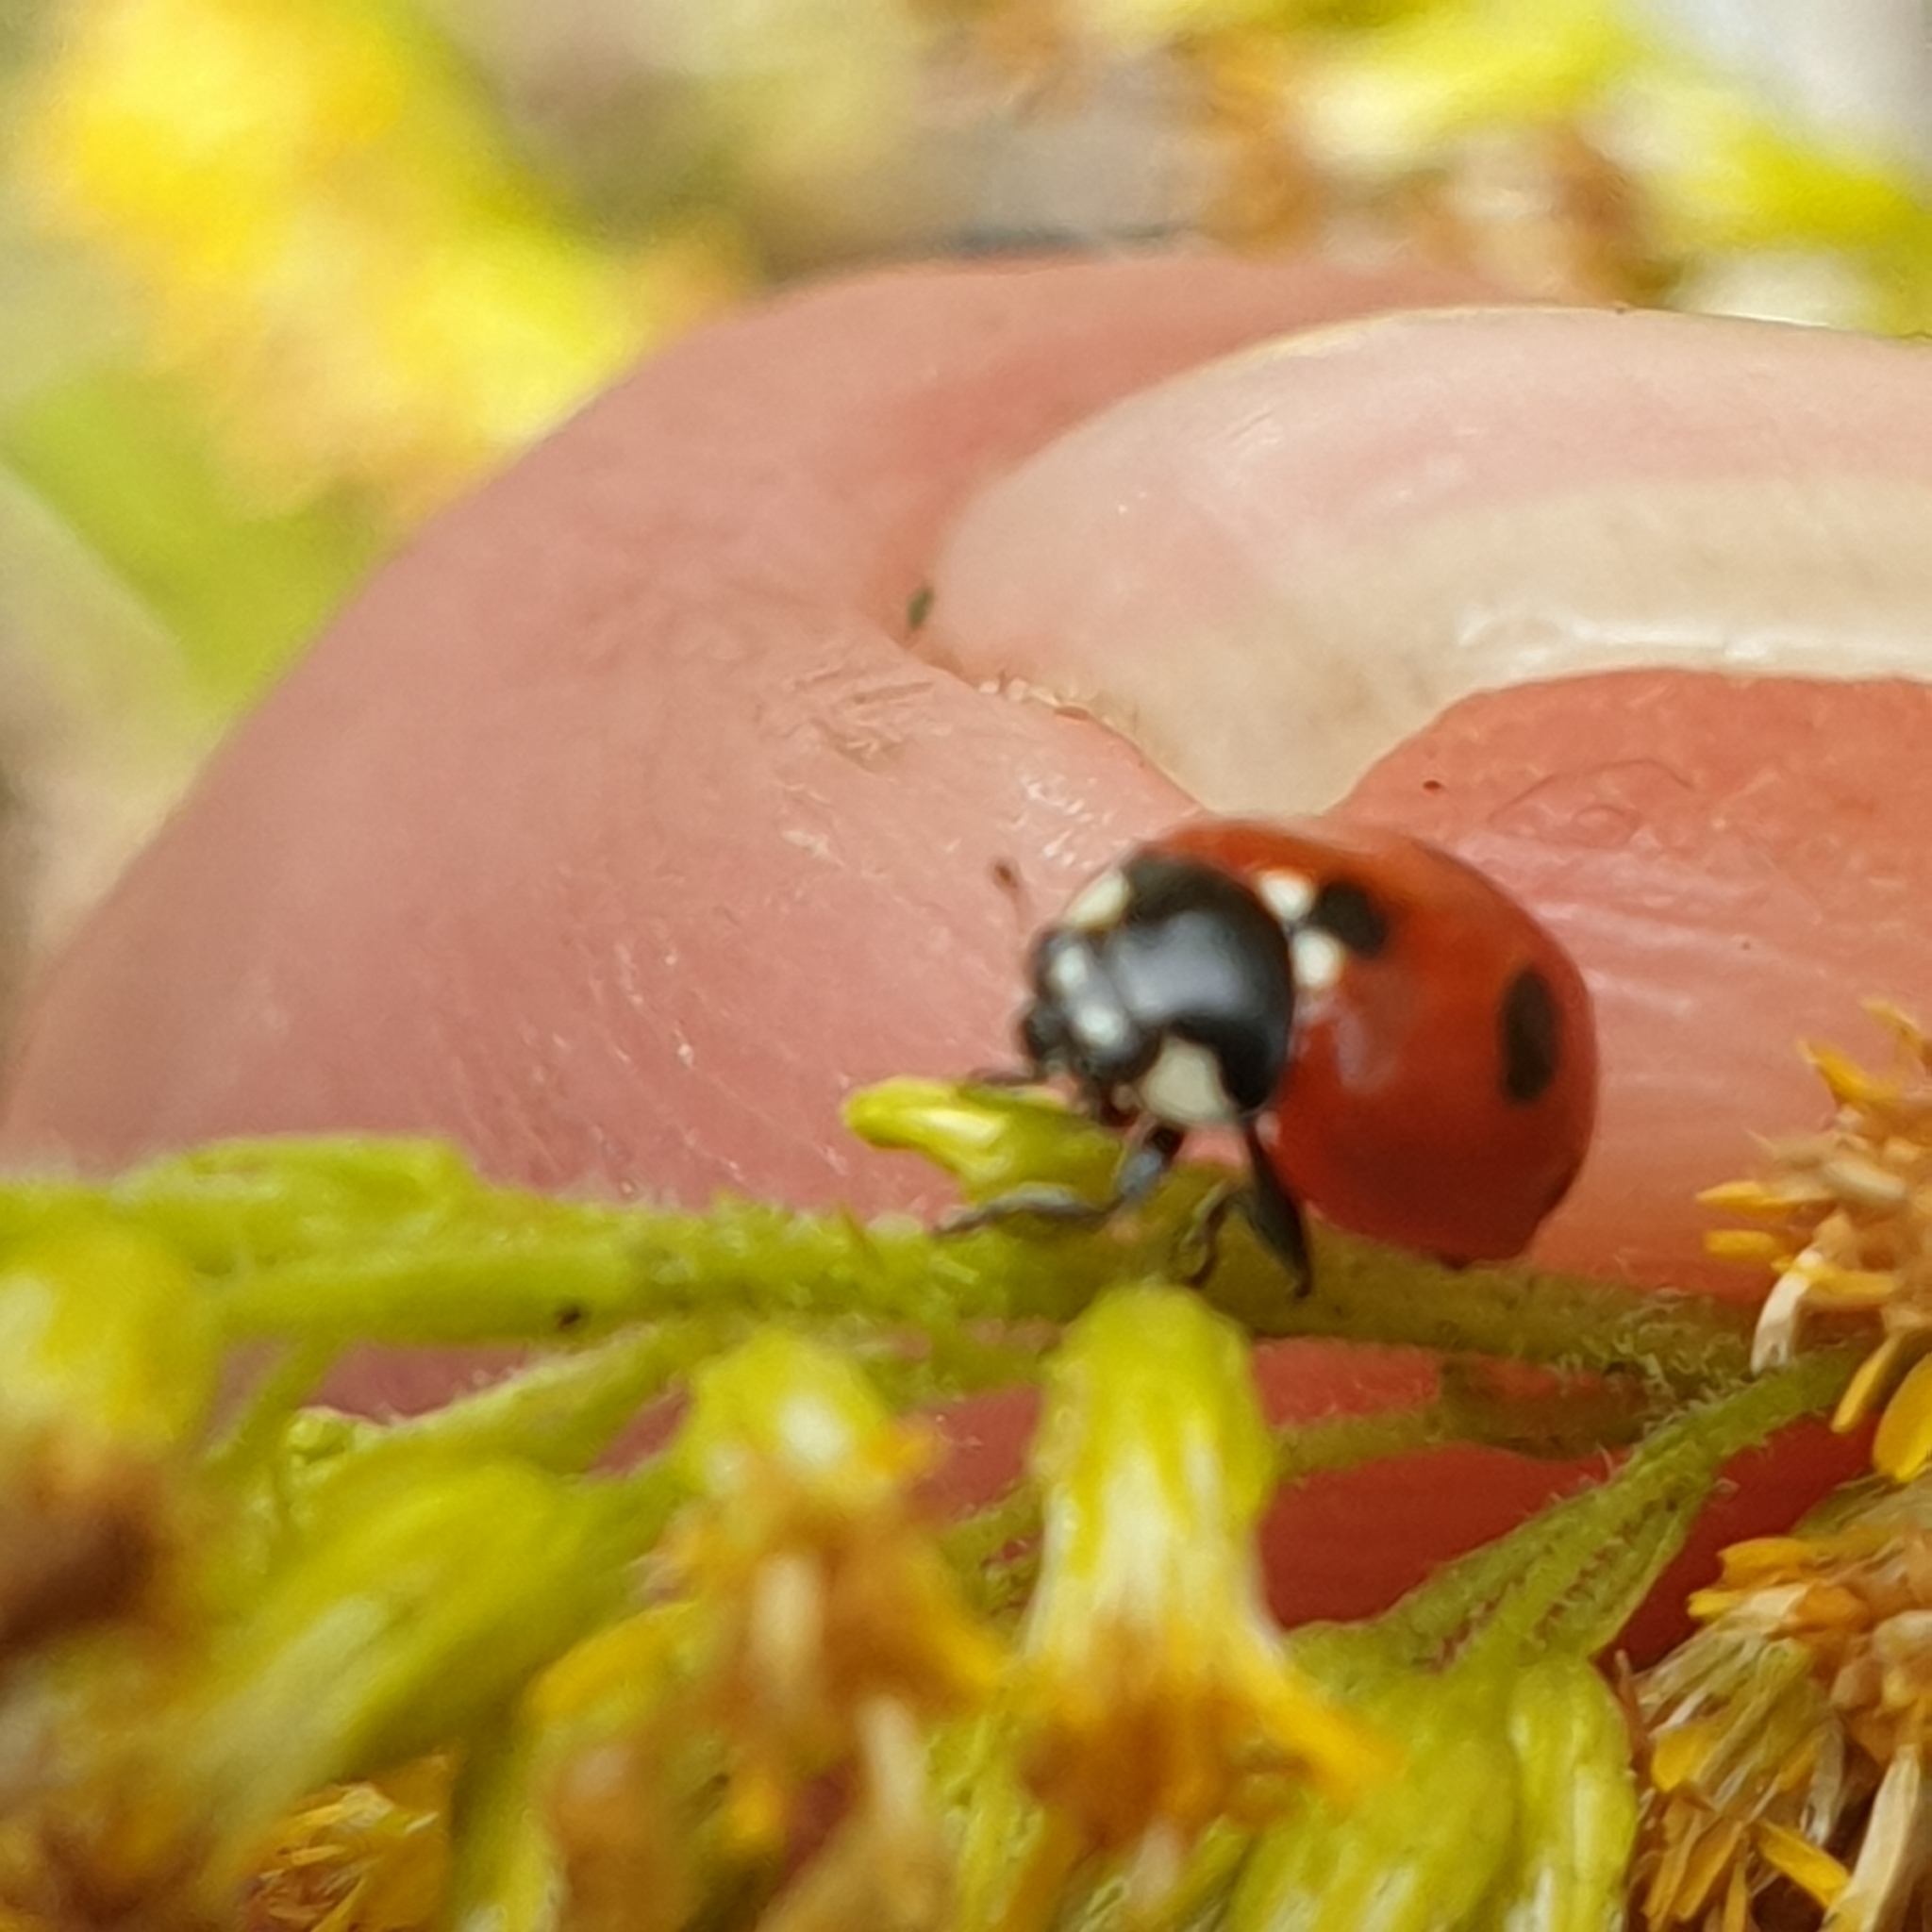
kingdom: Animalia
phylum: Arthropoda
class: Insecta
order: Coleoptera
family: Coccinellidae
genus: Coccinella
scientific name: Coccinella quinquepunctata
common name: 5-spot ladybird
